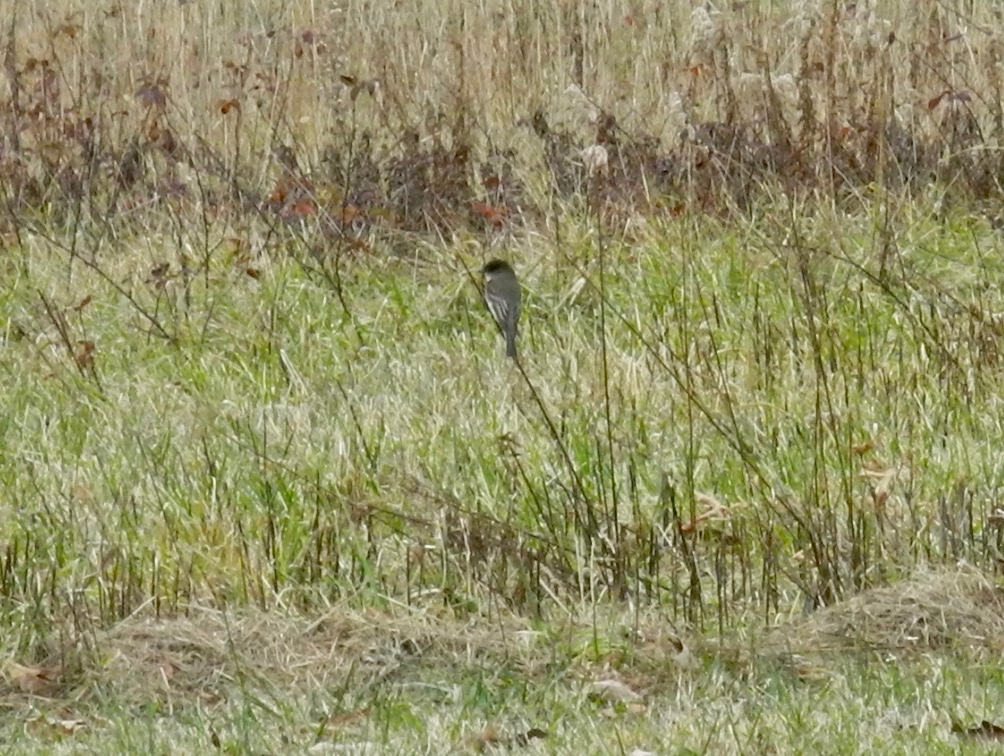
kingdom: Animalia
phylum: Chordata
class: Aves
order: Passeriformes
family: Tyrannidae
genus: Sayornis
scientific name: Sayornis phoebe
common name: Eastern phoebe
